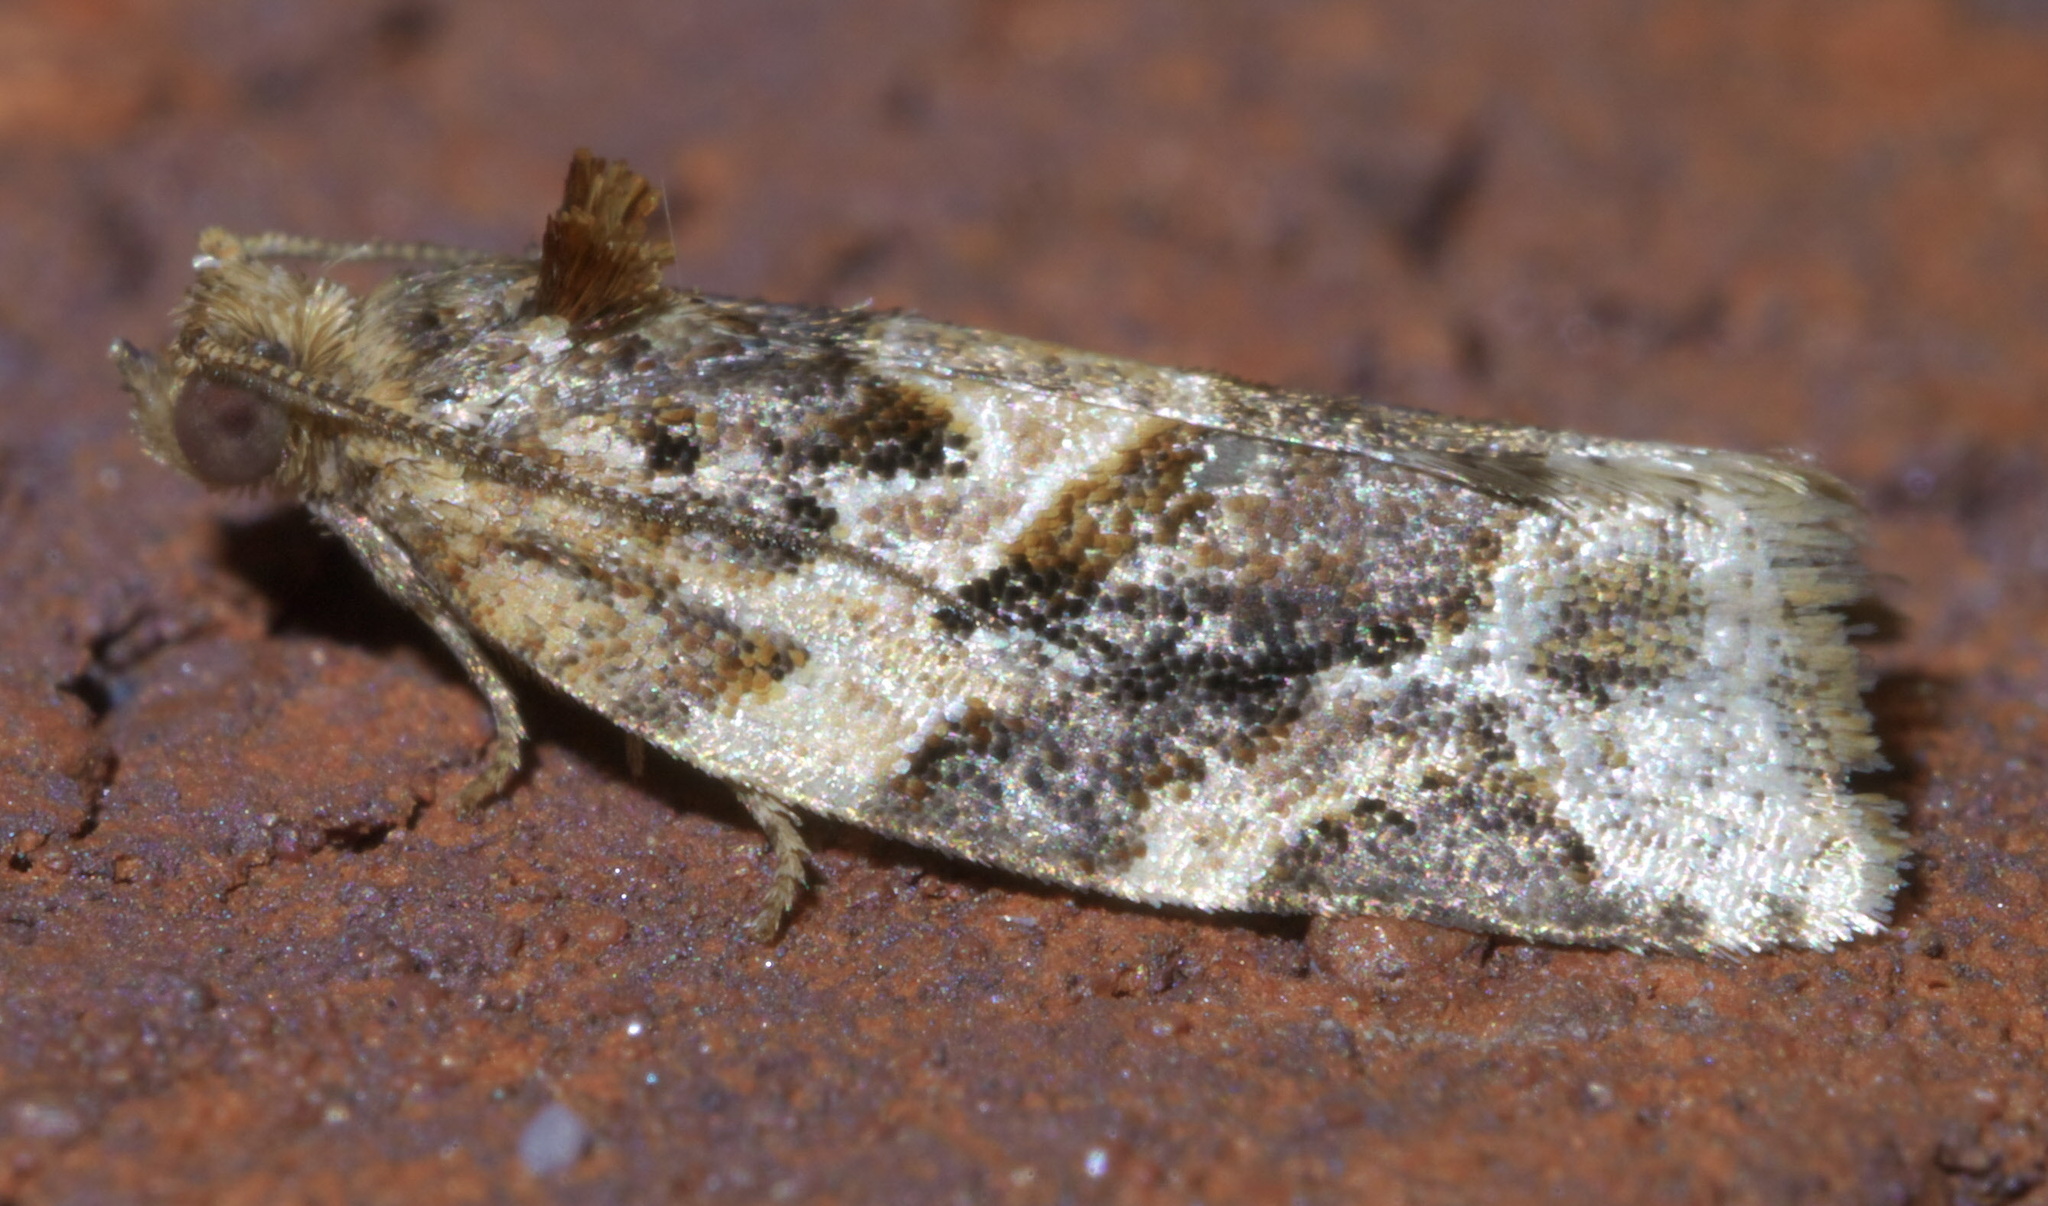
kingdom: Animalia
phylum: Arthropoda
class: Insecta
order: Lepidoptera
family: Tortricidae
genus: Argyrotaenia
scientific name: Argyrotaenia velutinana
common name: Red-banded leafroller moth
